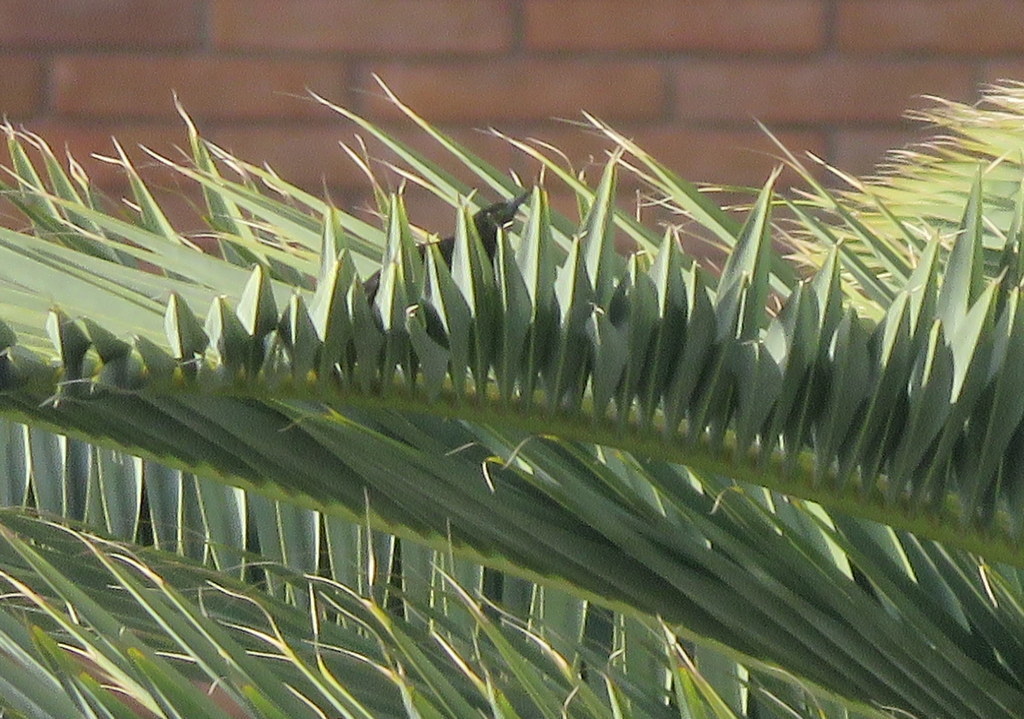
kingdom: Animalia
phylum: Chordata
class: Aves
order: Passeriformes
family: Icteridae
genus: Icterus
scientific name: Icterus cayanensis
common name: Epaulet oriole
